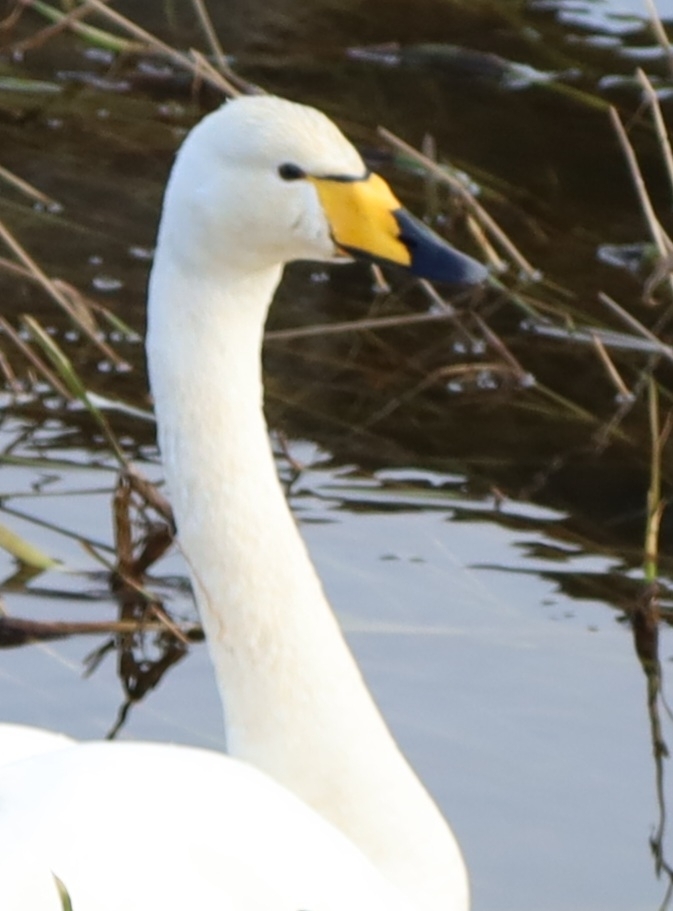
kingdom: Animalia
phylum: Chordata
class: Aves
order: Anseriformes
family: Anatidae
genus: Cygnus
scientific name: Cygnus cygnus
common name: Whooper swan
